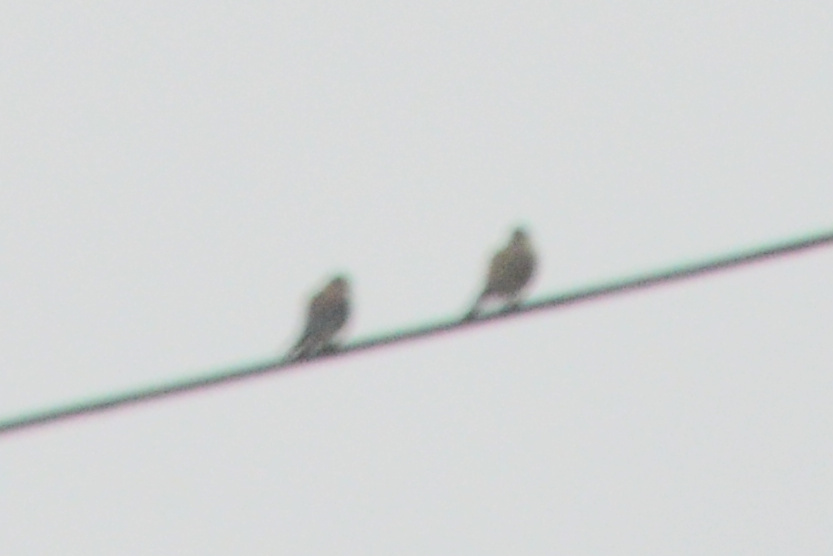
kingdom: Animalia
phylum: Chordata
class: Aves
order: Columbiformes
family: Columbidae
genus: Zenaida
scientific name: Zenaida macroura
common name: Mourning dove
